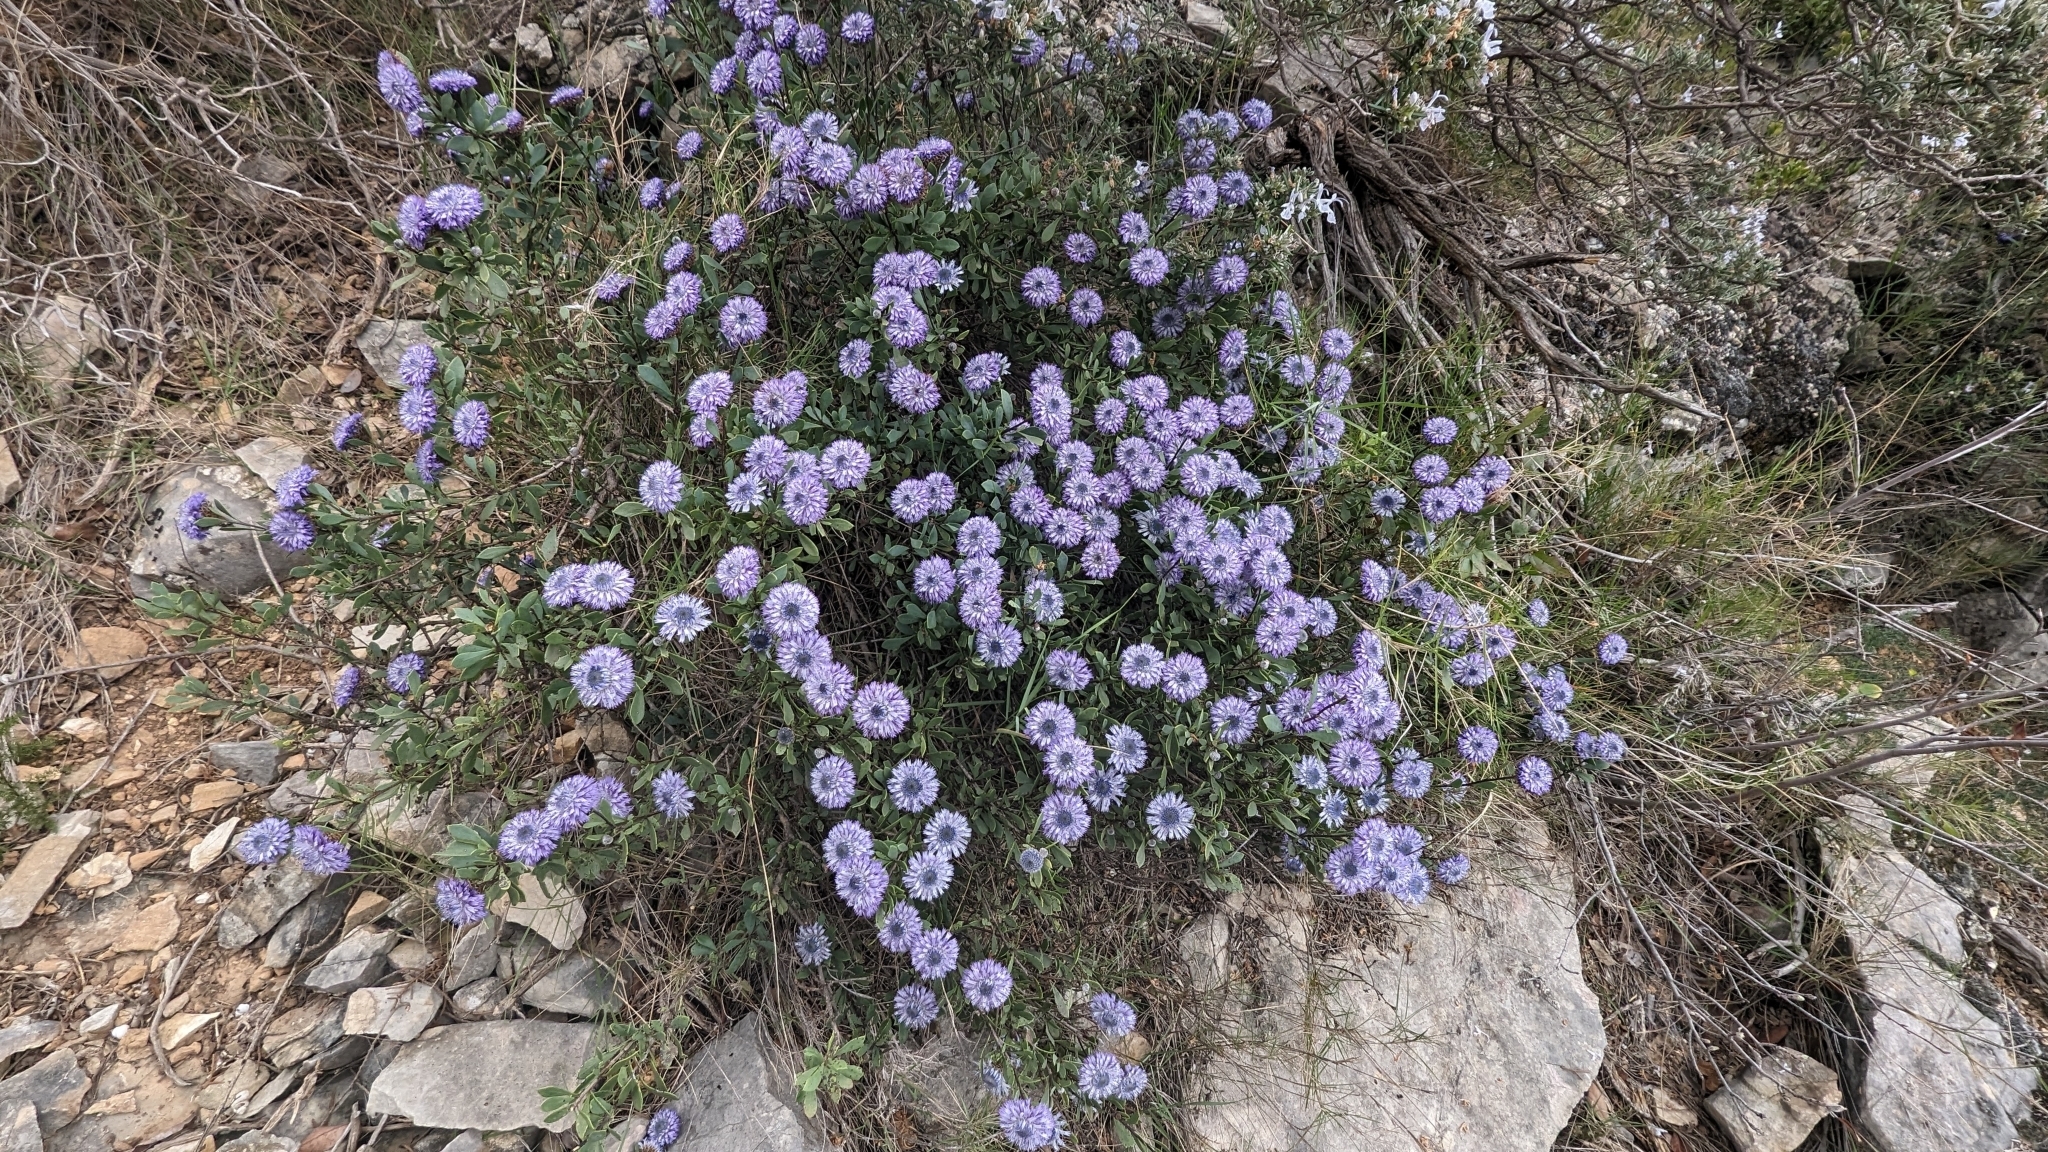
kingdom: Plantae
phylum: Tracheophyta
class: Magnoliopsida
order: Lamiales
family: Plantaginaceae
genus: Globularia
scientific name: Globularia alypum
